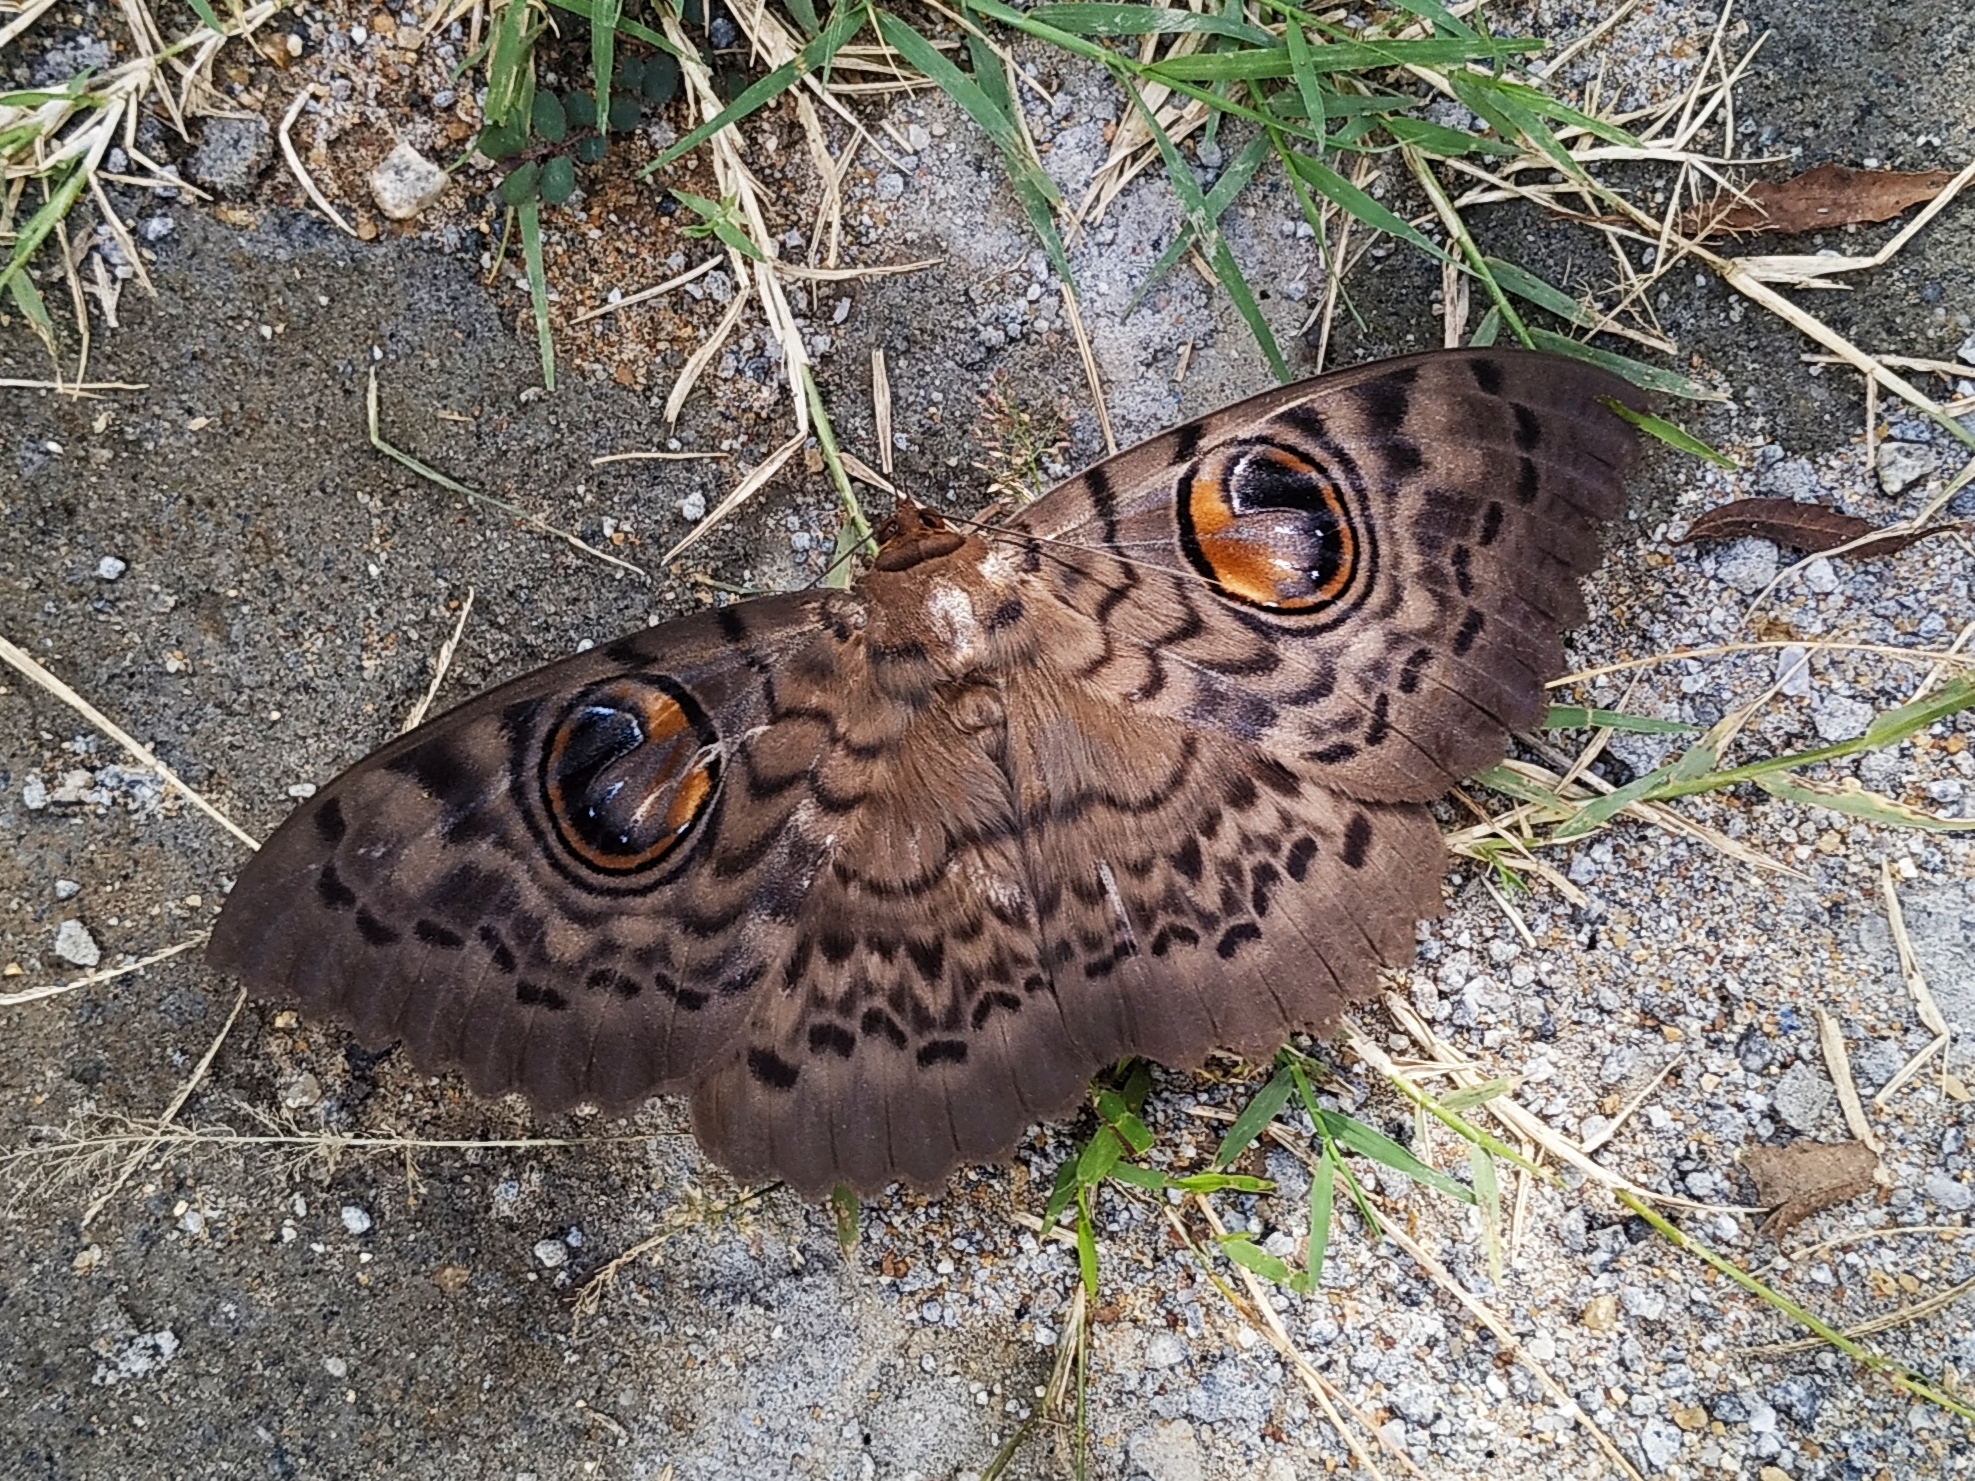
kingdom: Animalia
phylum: Arthropoda
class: Insecta
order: Lepidoptera
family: Erebidae
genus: Erebus
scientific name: Erebus macrops
